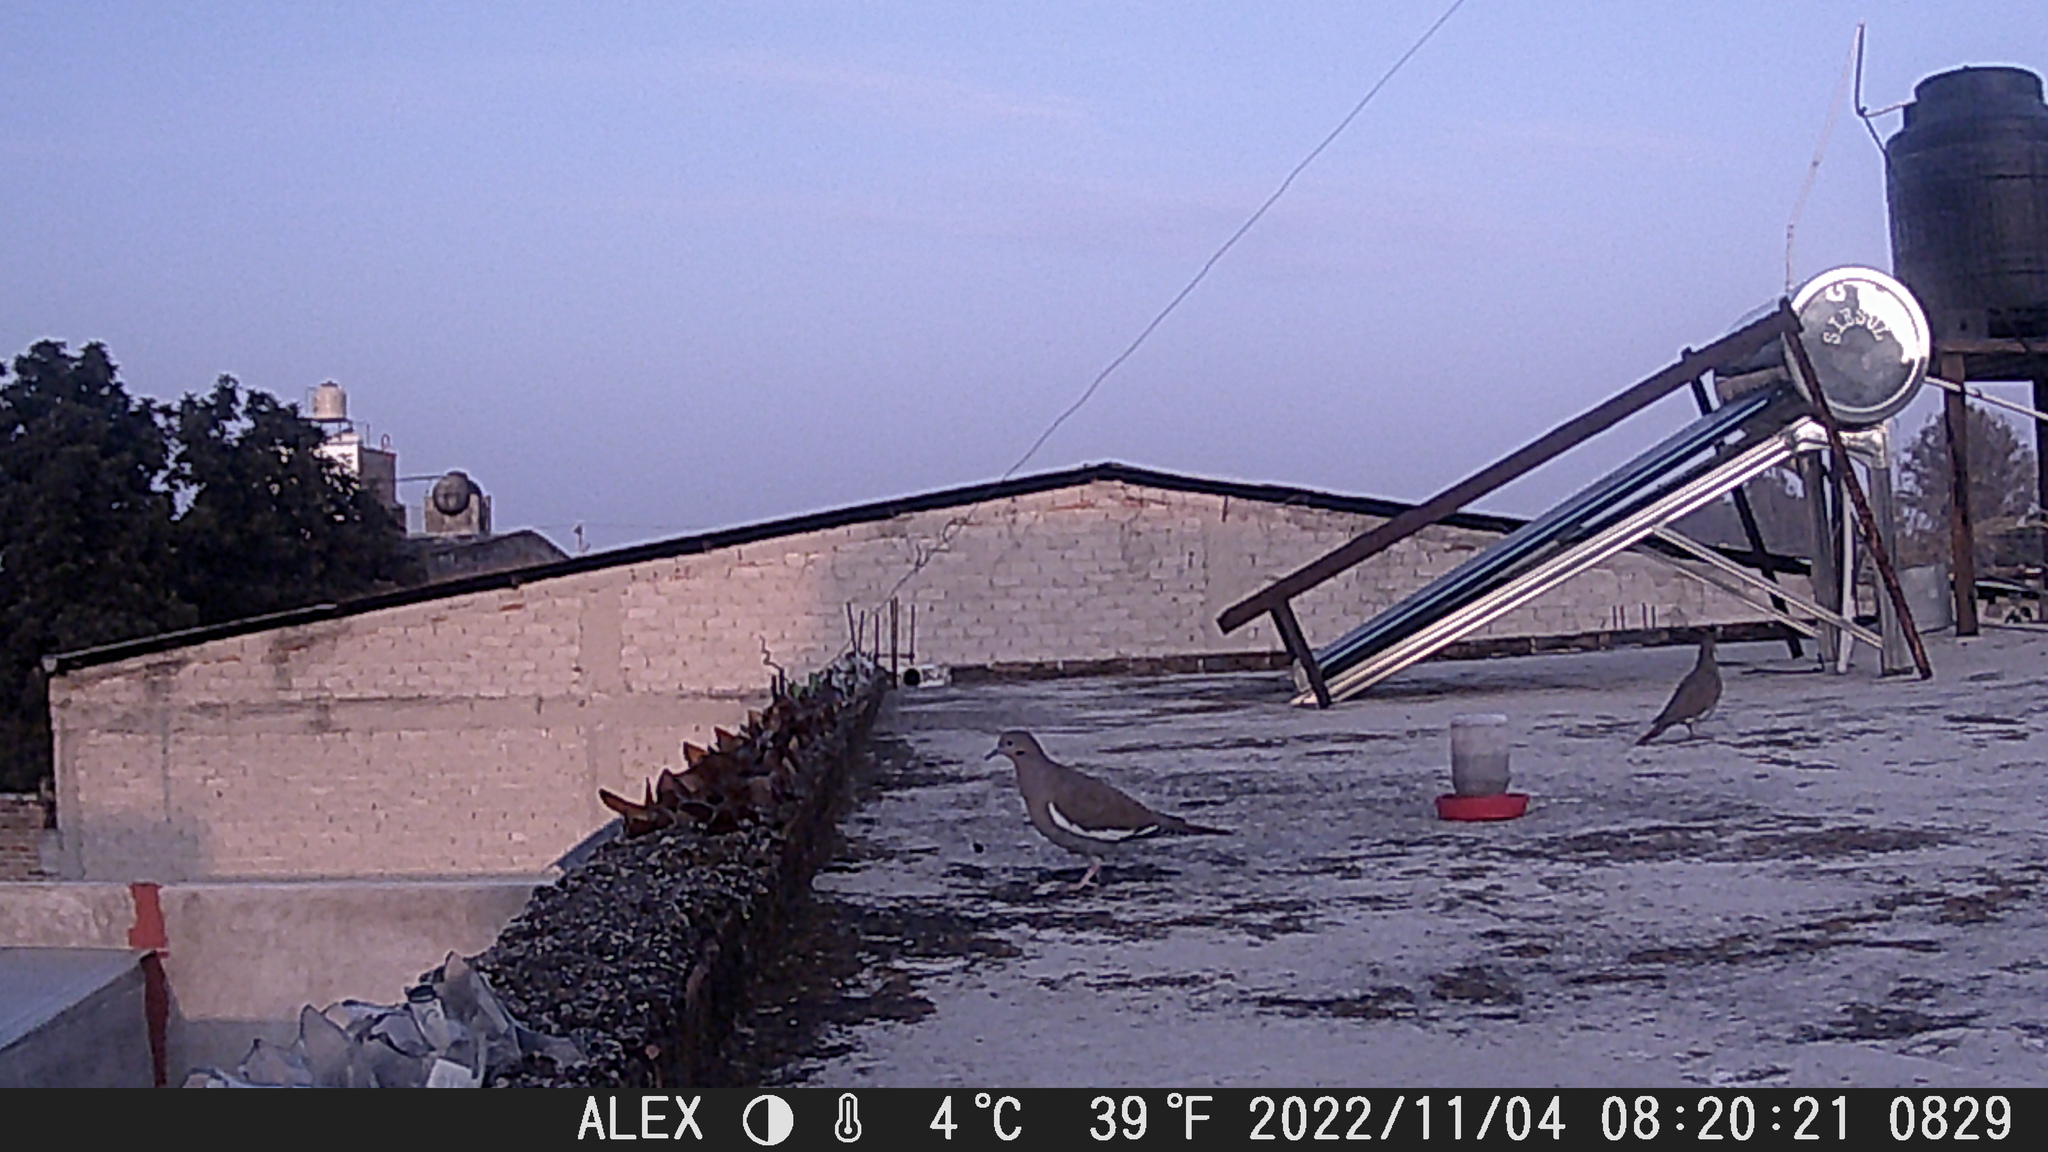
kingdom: Animalia
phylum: Chordata
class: Aves
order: Columbiformes
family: Columbidae
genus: Zenaida
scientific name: Zenaida asiatica
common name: White-winged dove
